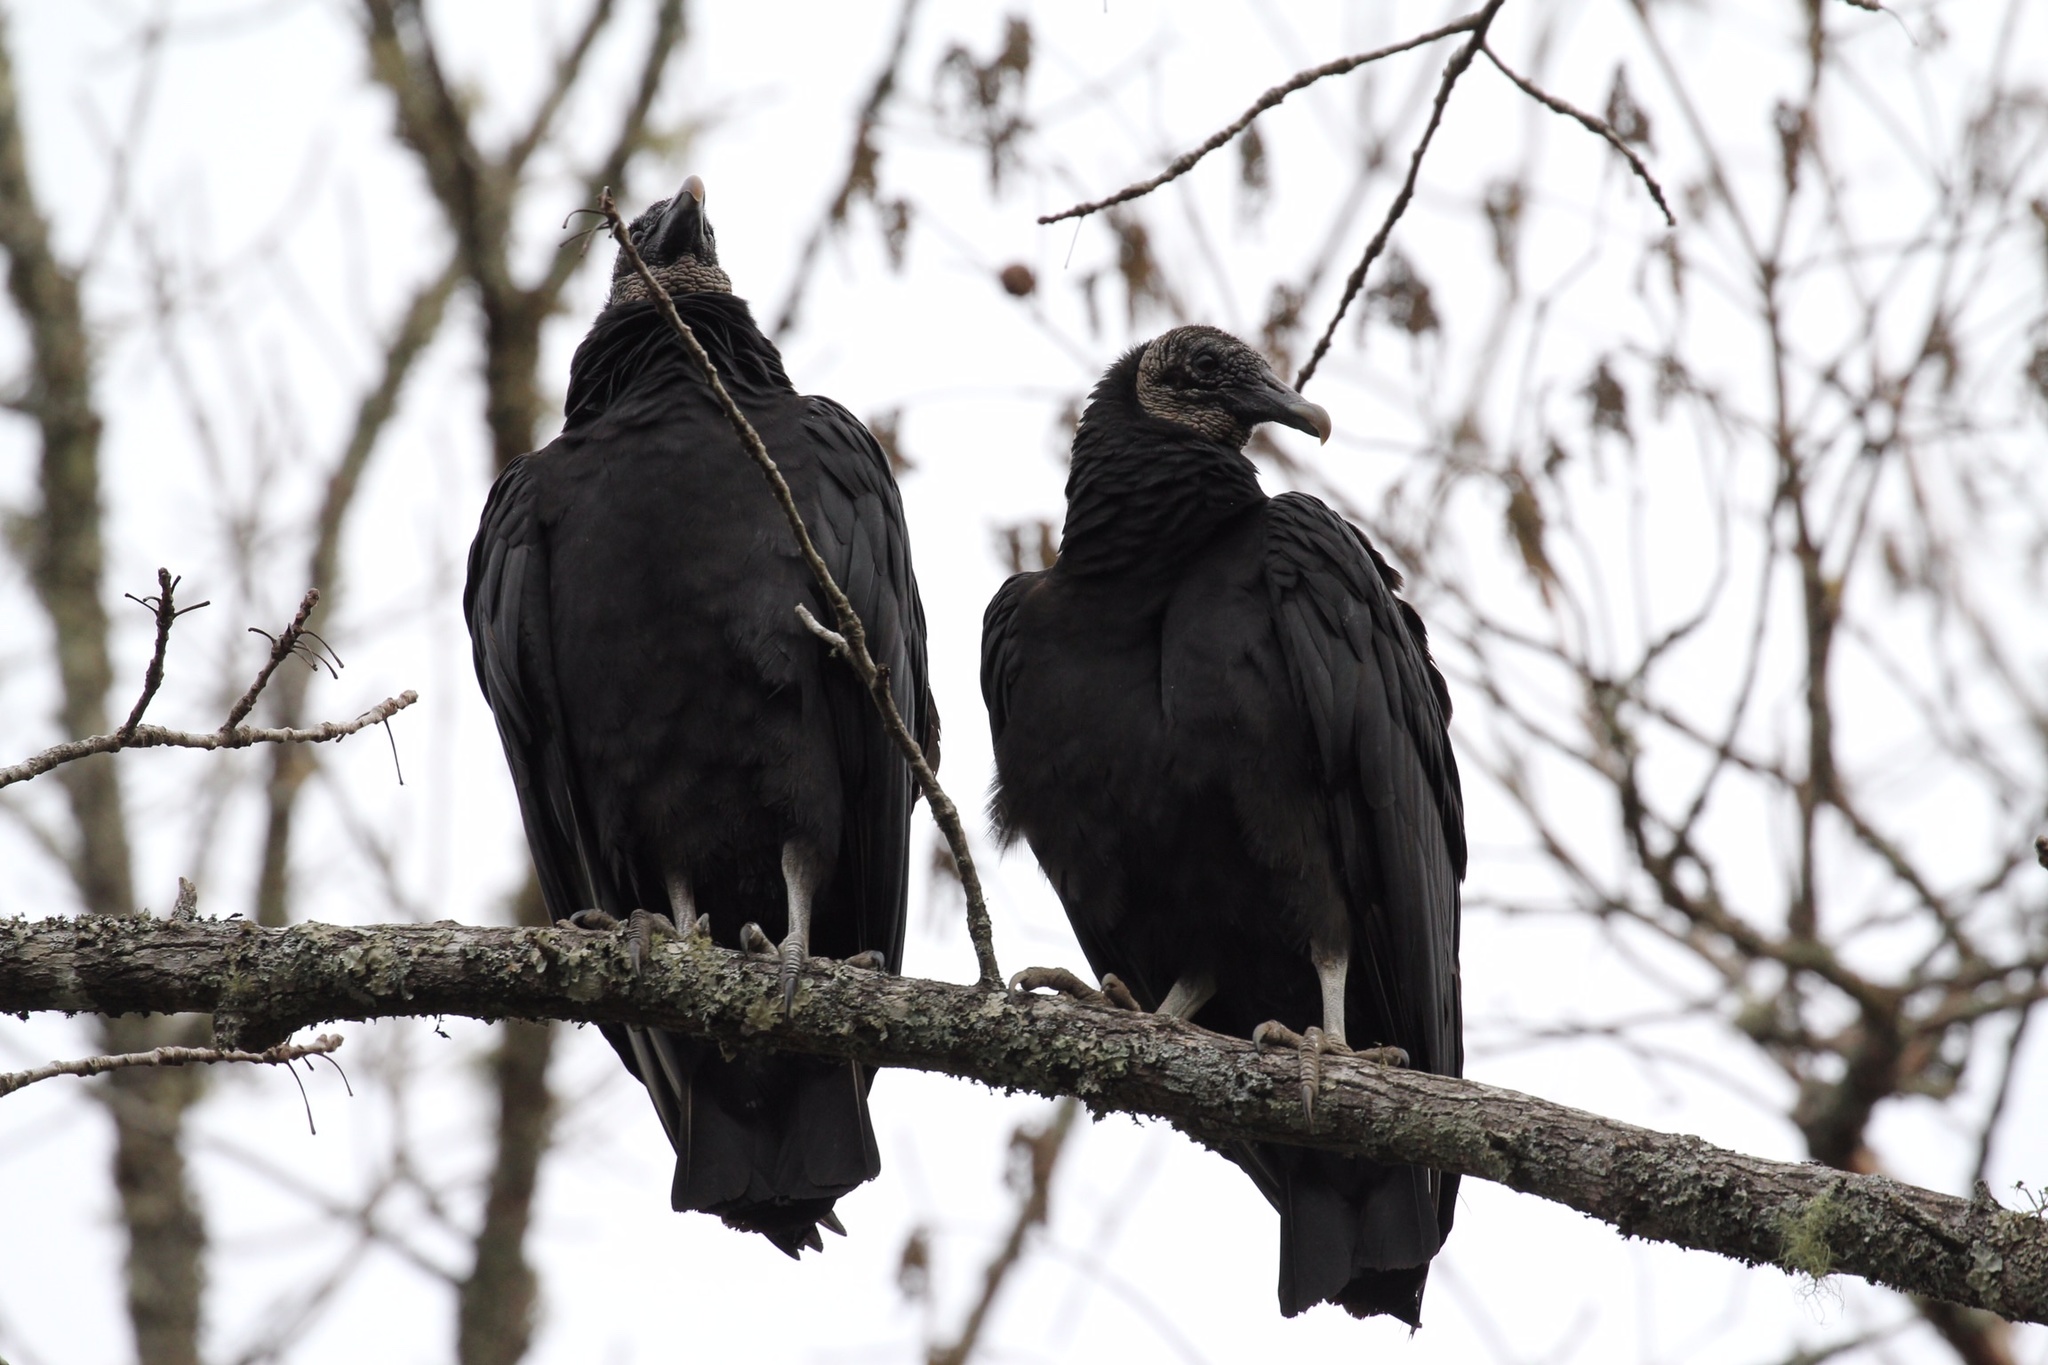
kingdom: Animalia
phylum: Chordata
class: Aves
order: Accipitriformes
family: Cathartidae
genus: Coragyps
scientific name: Coragyps atratus
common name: Black vulture
